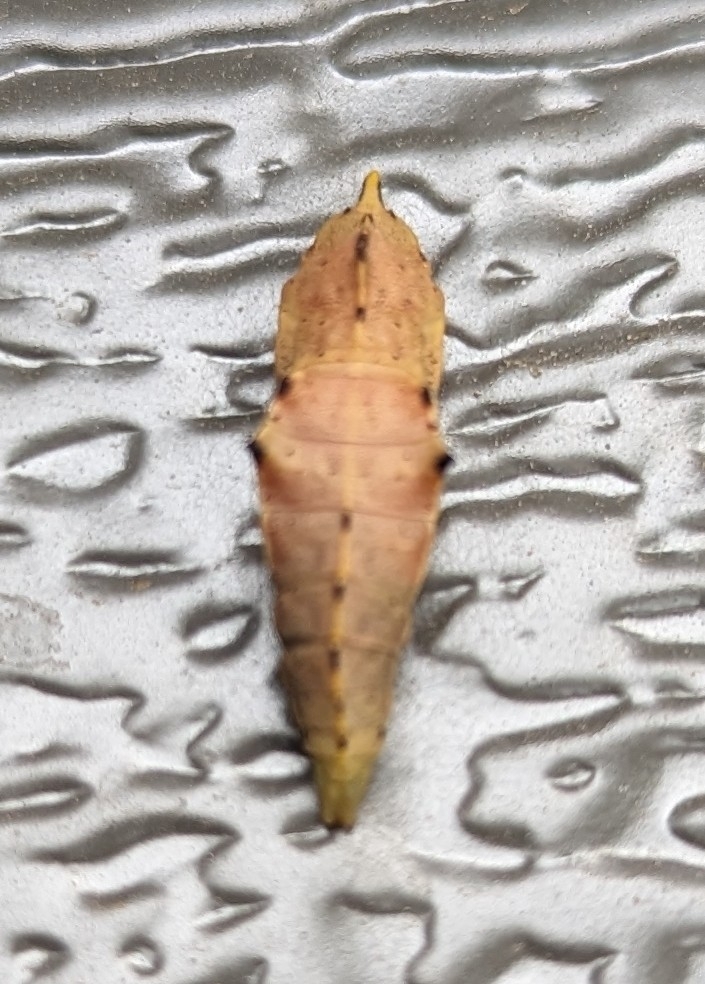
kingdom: Animalia
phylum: Arthropoda
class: Insecta
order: Lepidoptera
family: Pieridae
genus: Pieris
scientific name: Pieris rapae
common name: Small white
